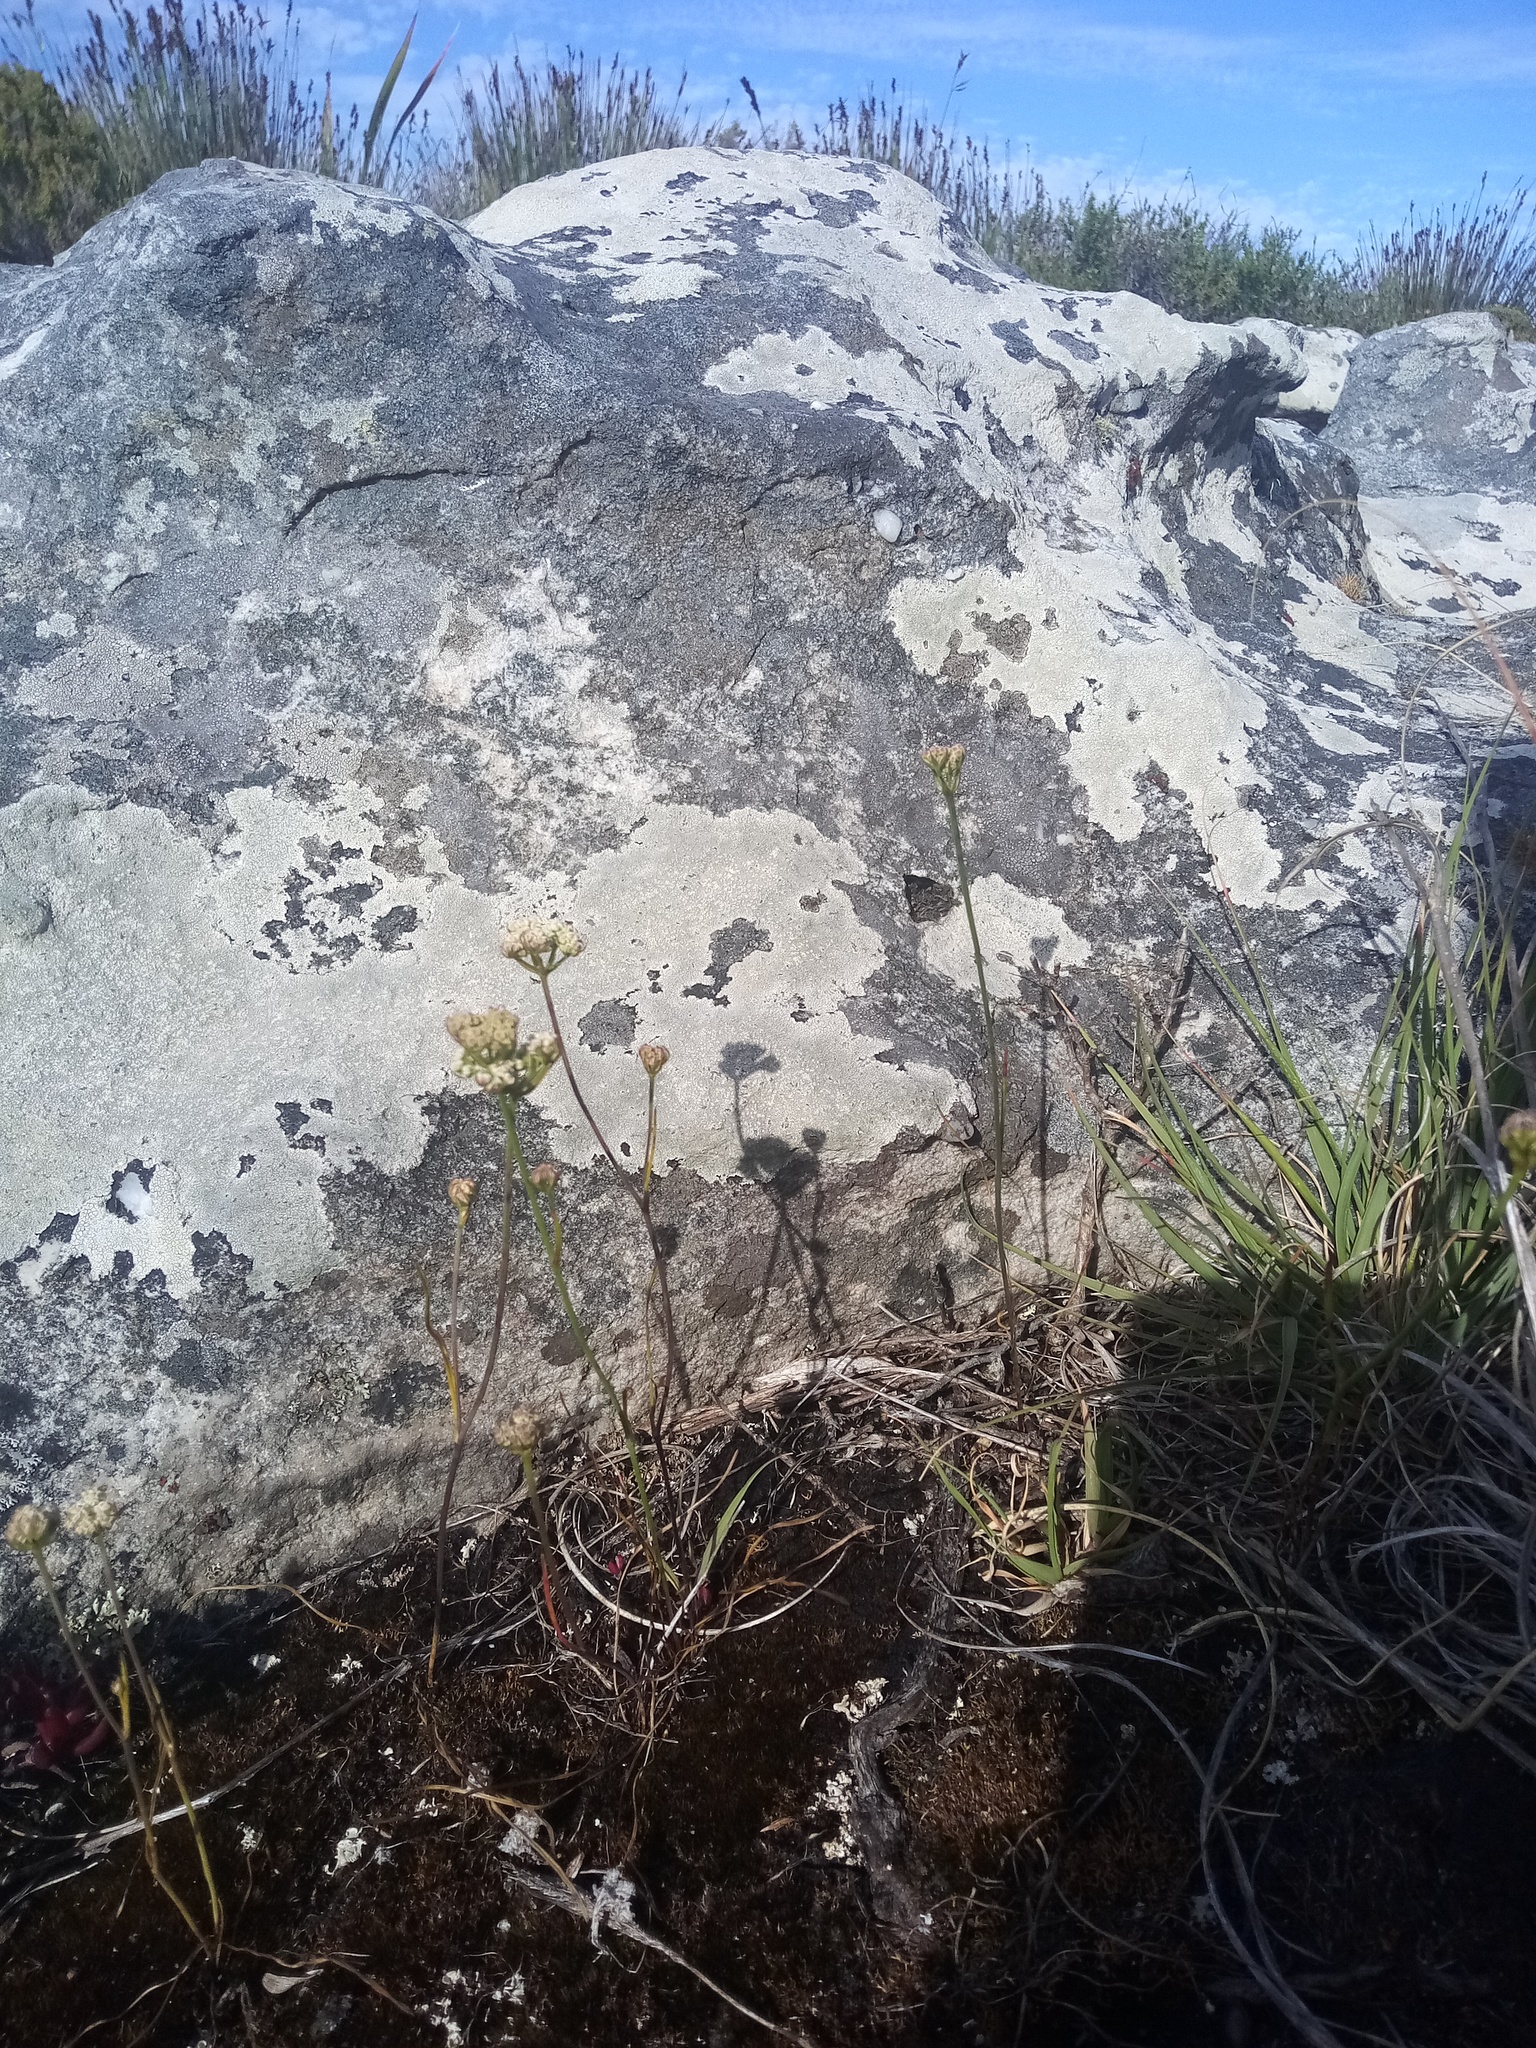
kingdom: Plantae
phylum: Tracheophyta
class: Magnoliopsida
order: Apiales
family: Apiaceae
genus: Itasina
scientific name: Itasina filifolia
